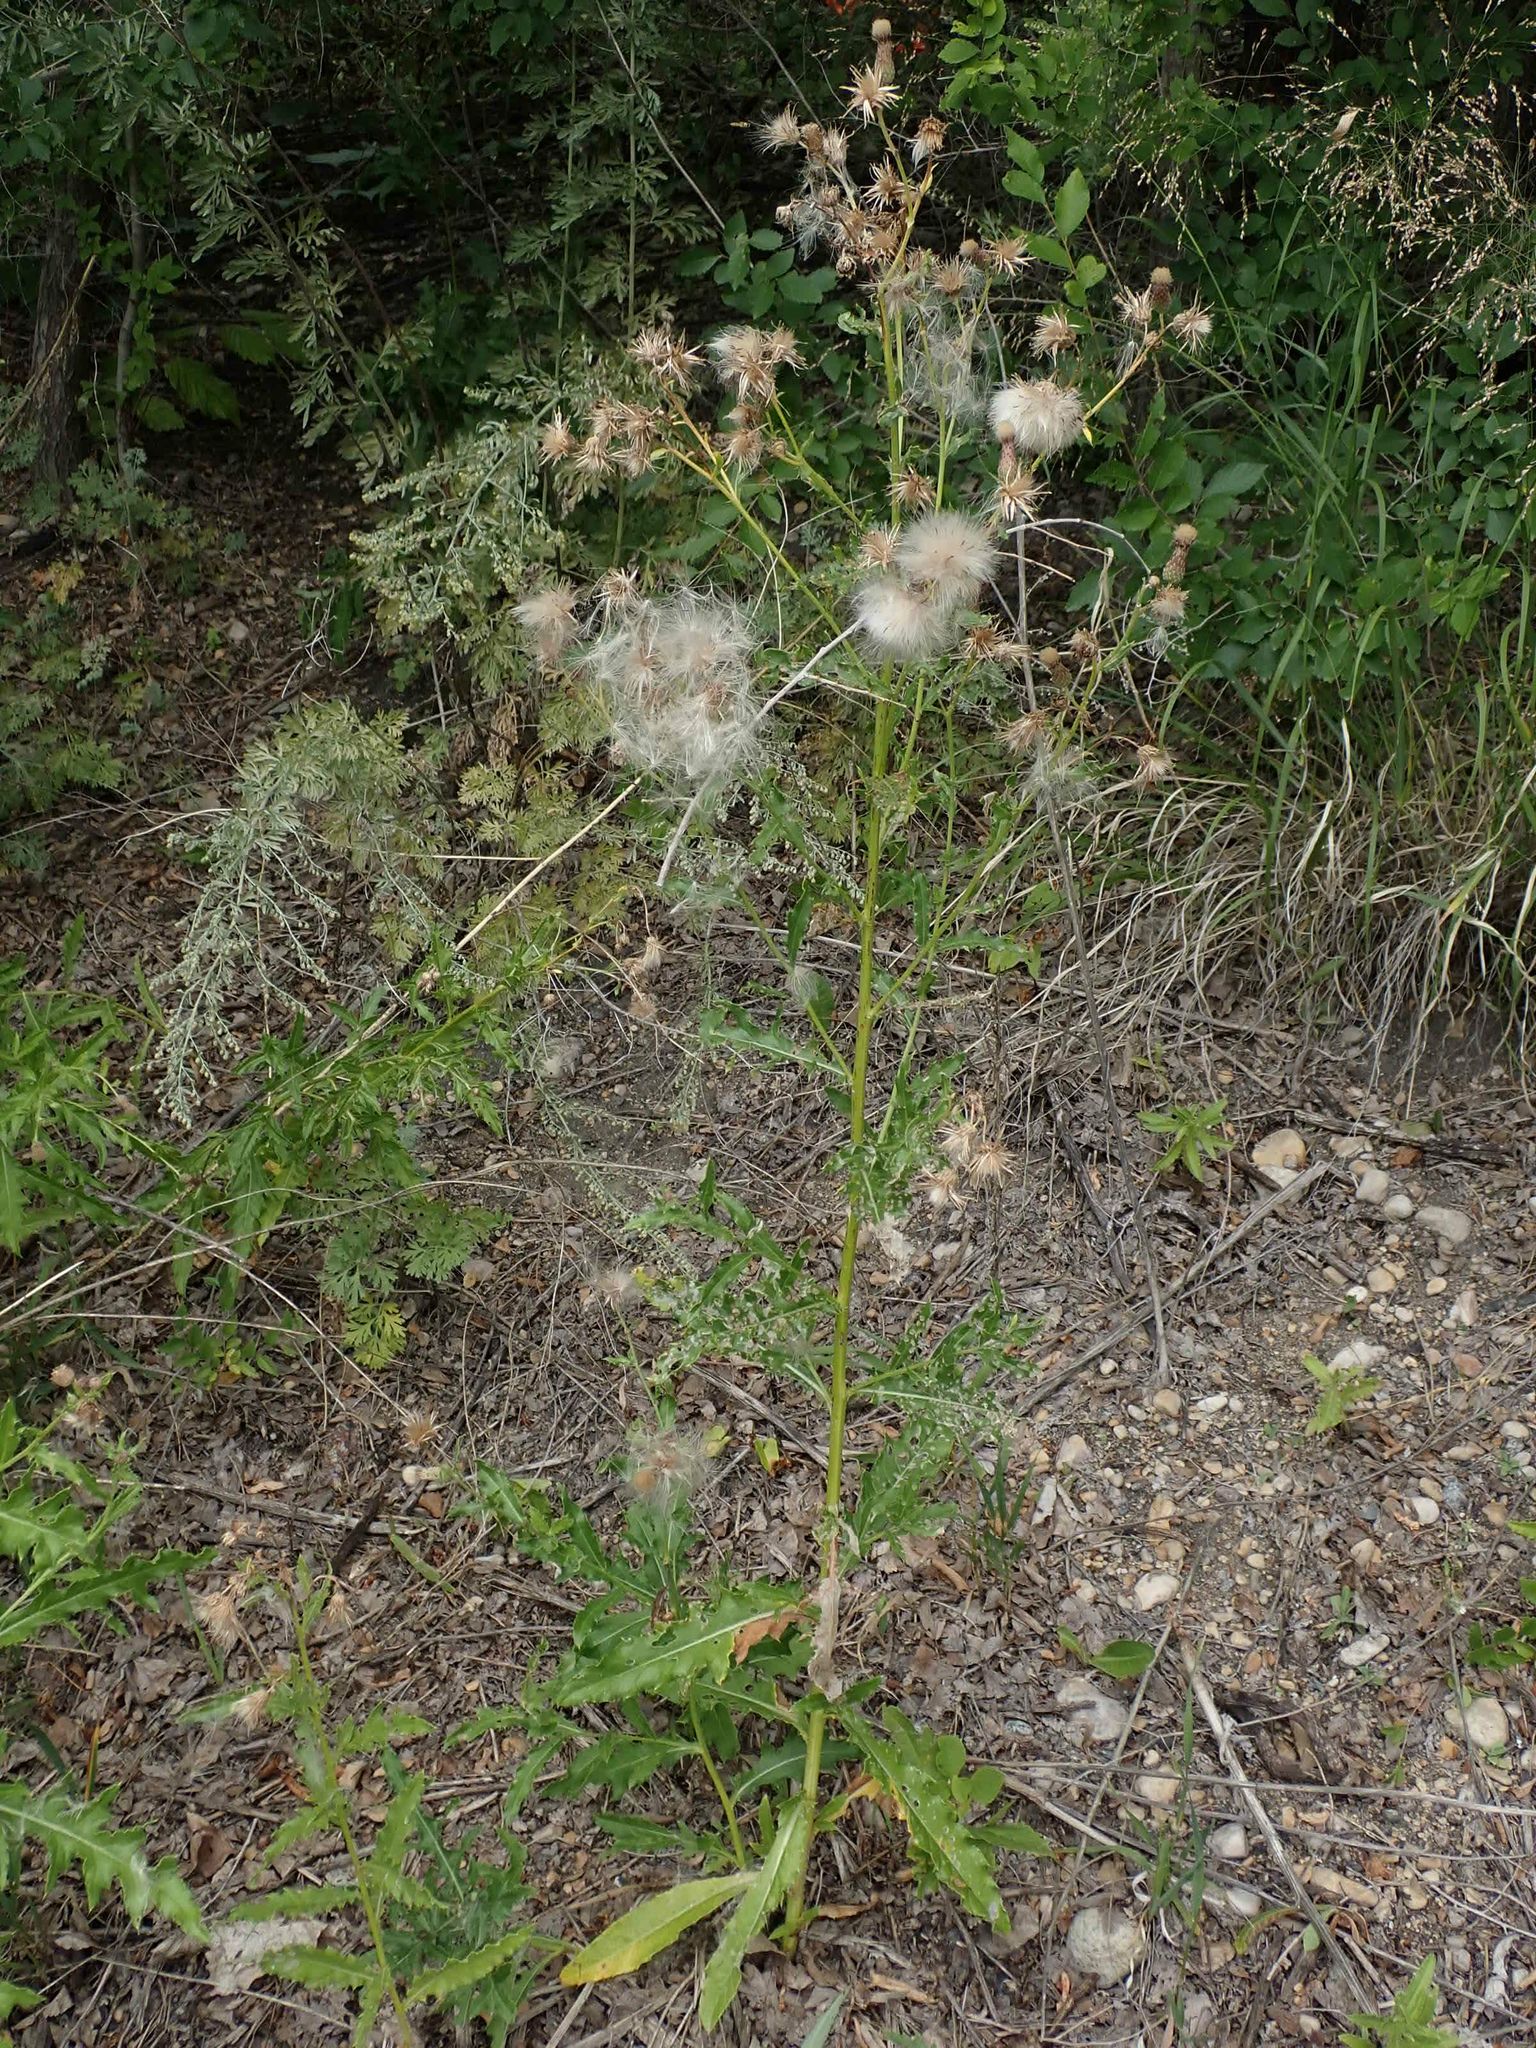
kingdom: Plantae
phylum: Tracheophyta
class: Magnoliopsida
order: Asterales
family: Asteraceae
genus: Cirsium
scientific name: Cirsium arvense
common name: Creeping thistle
